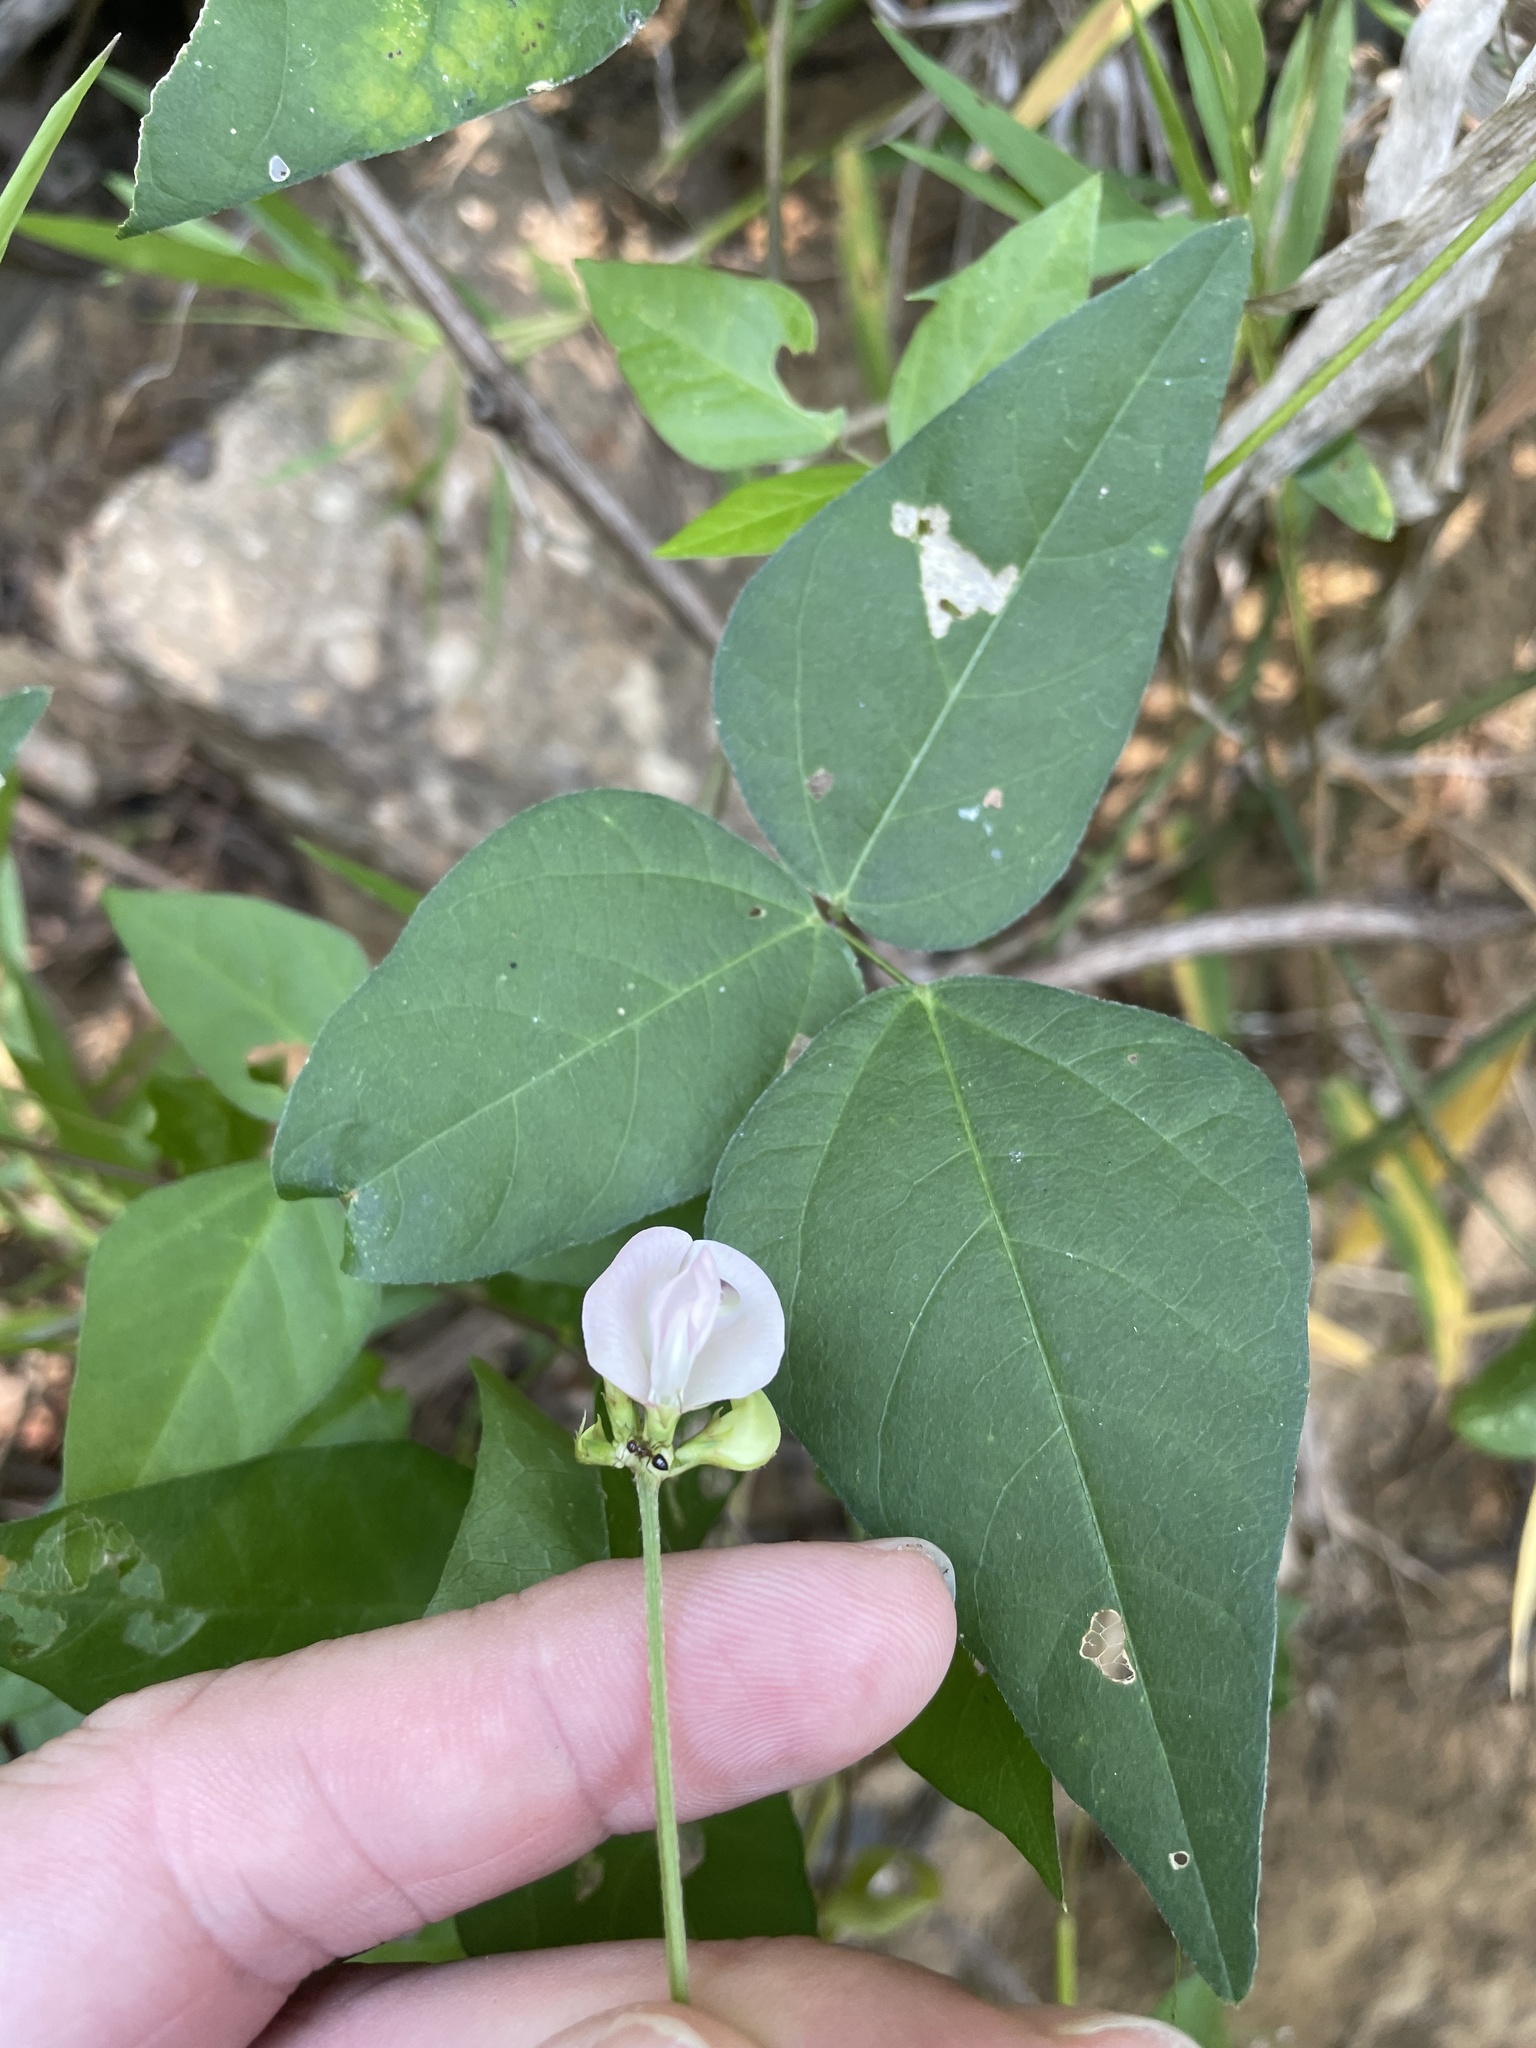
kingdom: Plantae
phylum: Tracheophyta
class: Magnoliopsida
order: Fabales
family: Fabaceae
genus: Strophostyles
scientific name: Strophostyles helvola
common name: Trailing wild bean
